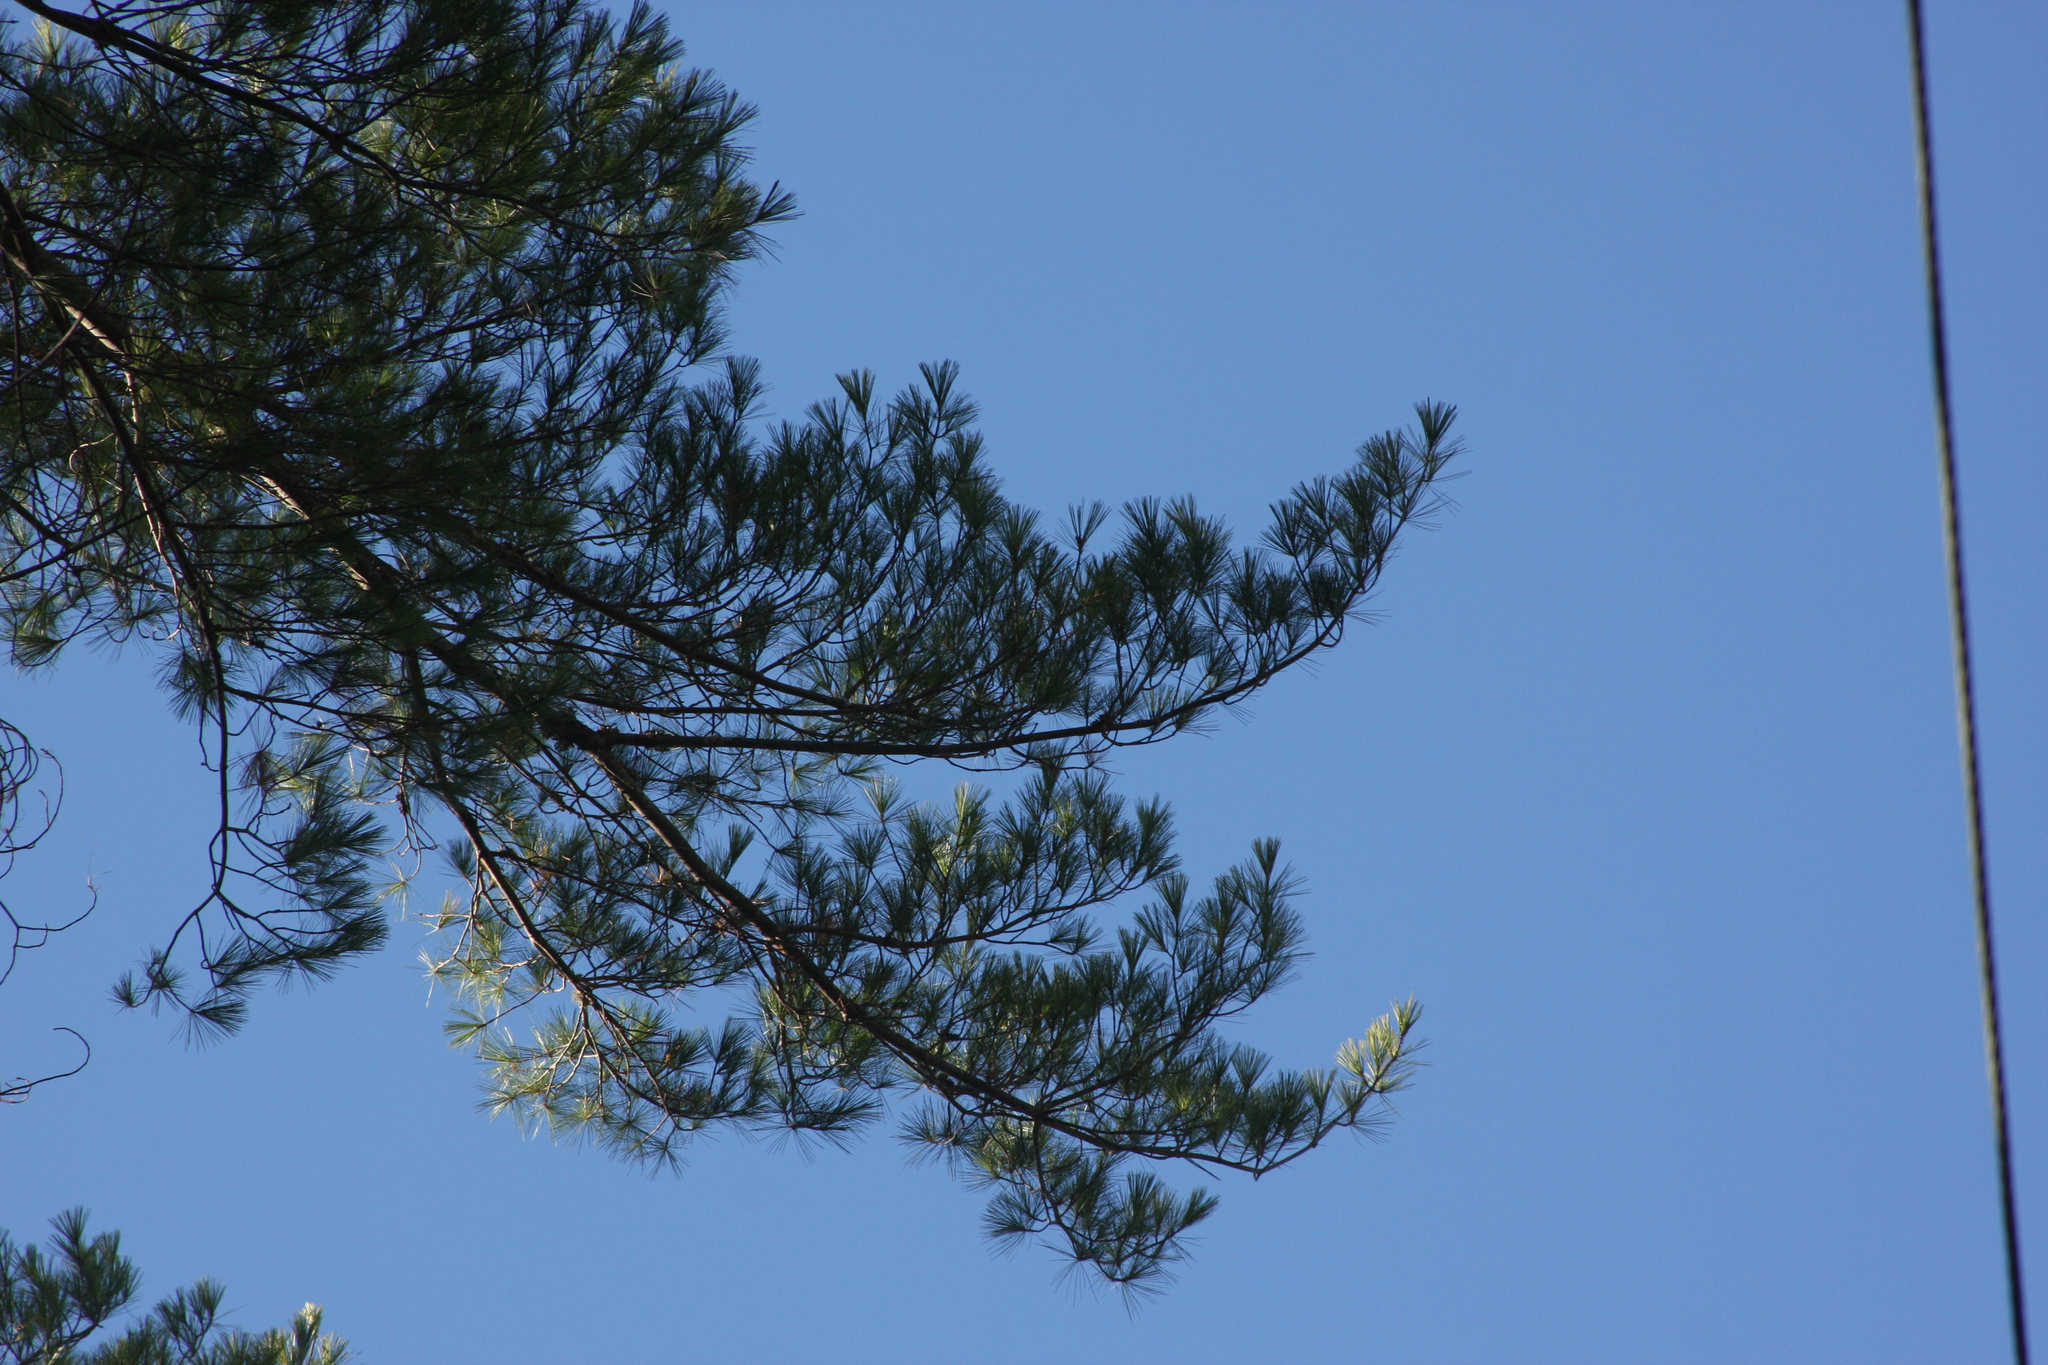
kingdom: Plantae
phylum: Tracheophyta
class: Pinopsida
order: Pinales
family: Pinaceae
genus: Pinus
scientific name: Pinus strobus
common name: Weymouth pine
